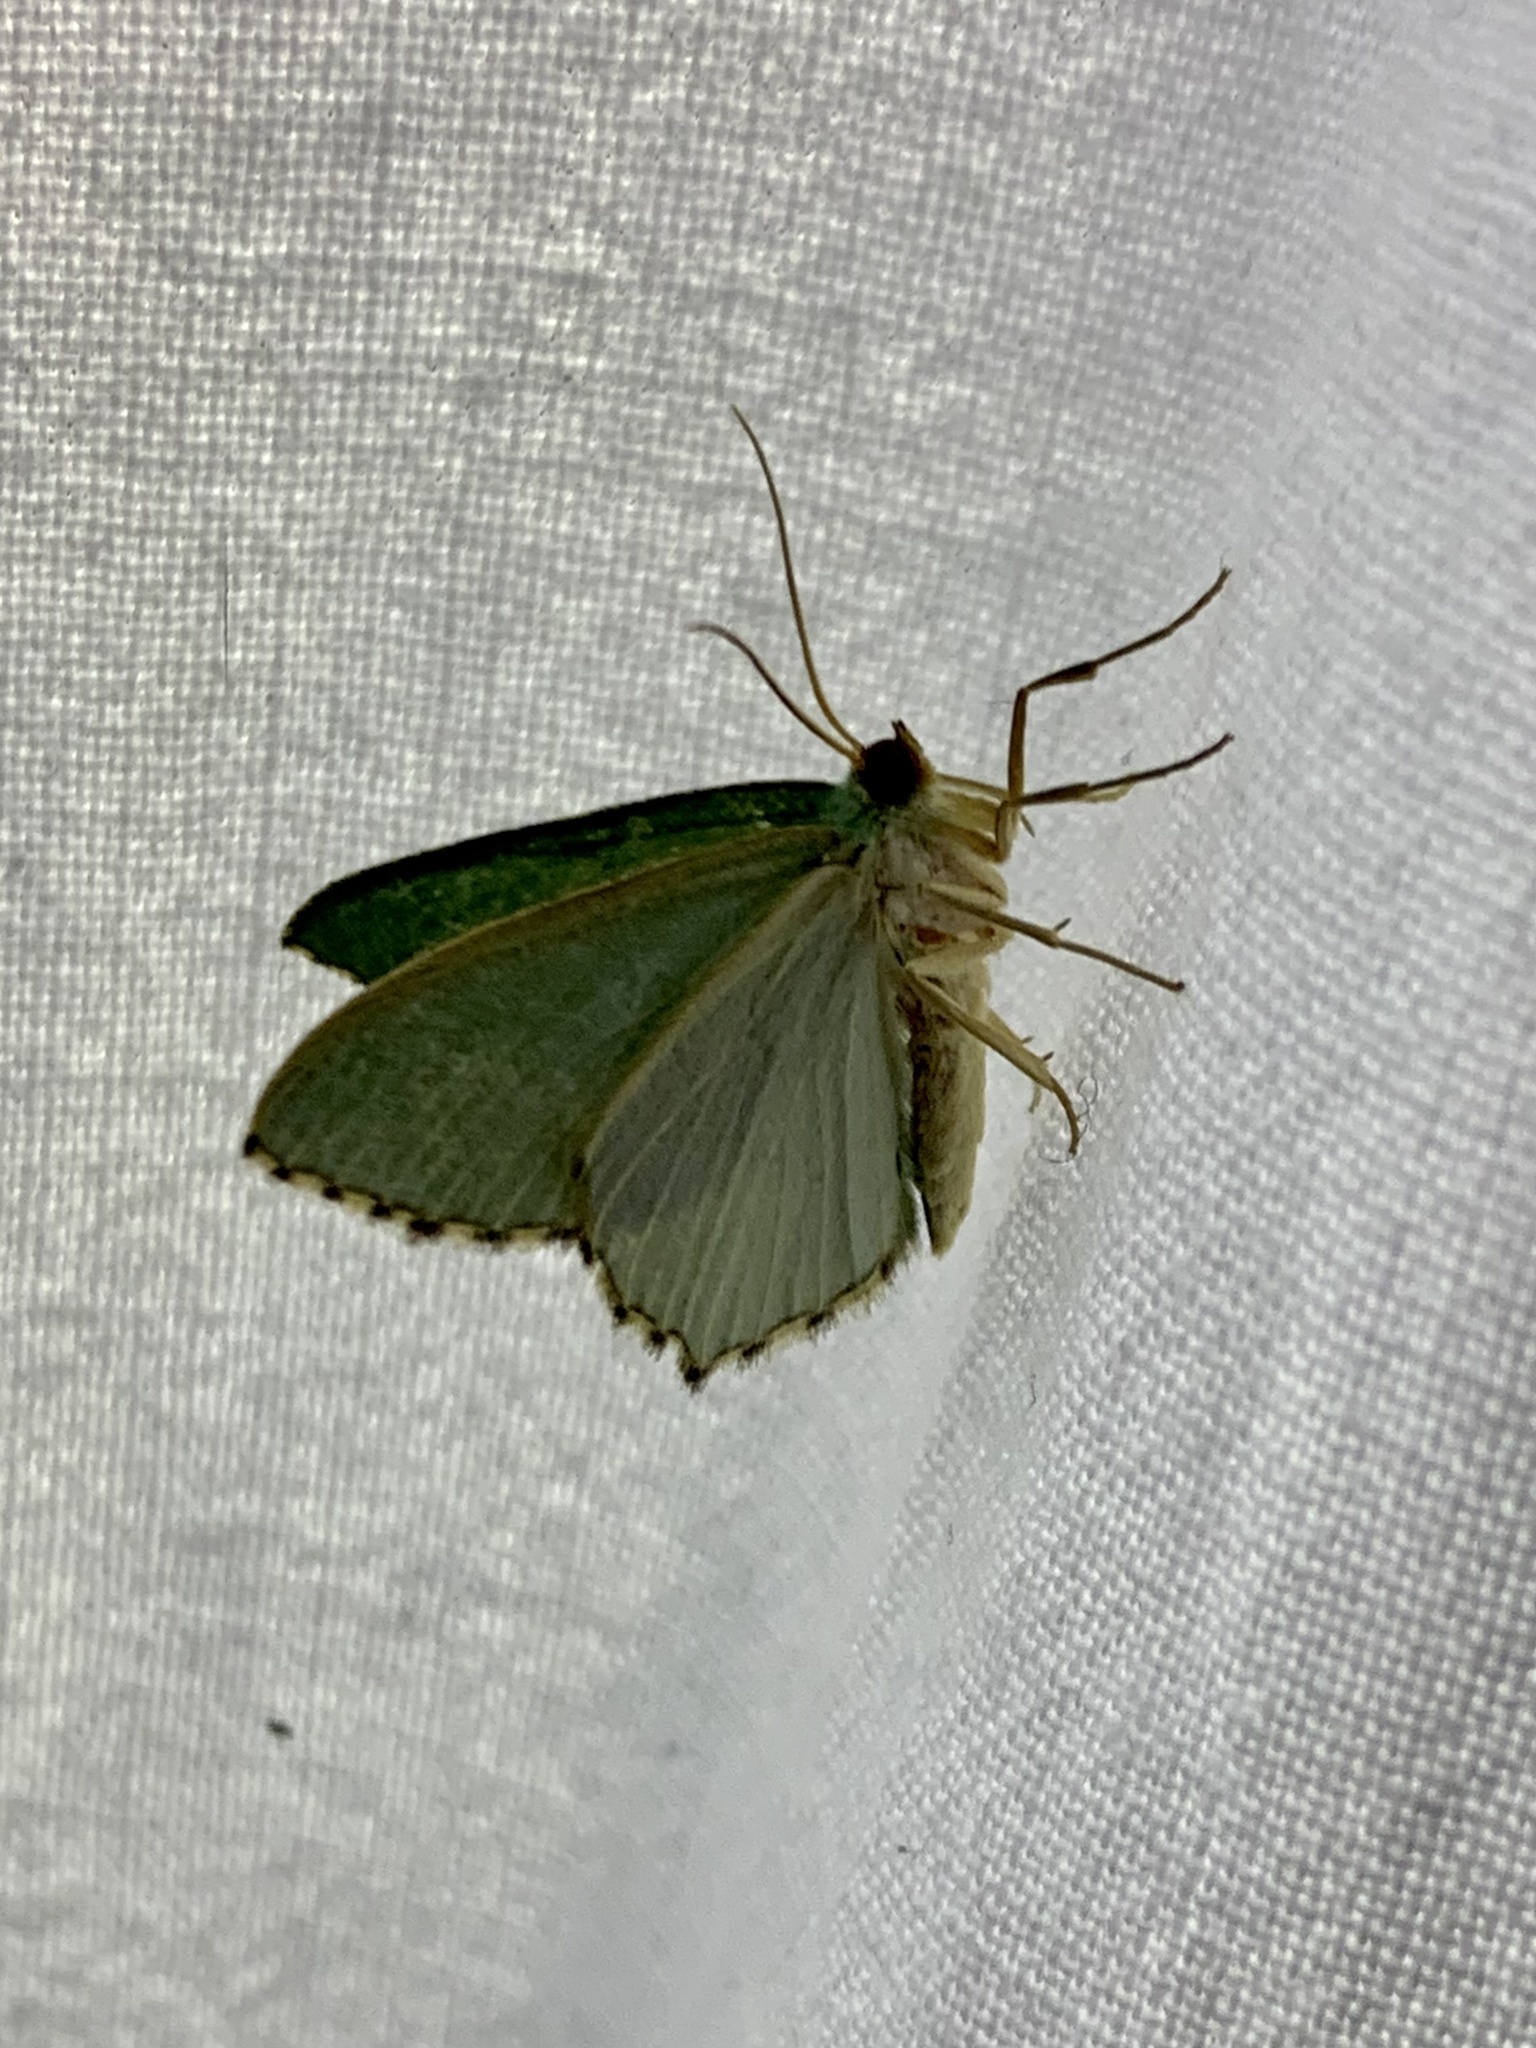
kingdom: Animalia
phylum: Arthropoda
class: Insecta
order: Lepidoptera
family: Geometridae
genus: Hemithea
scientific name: Hemithea aestivaria
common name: Common emerald
